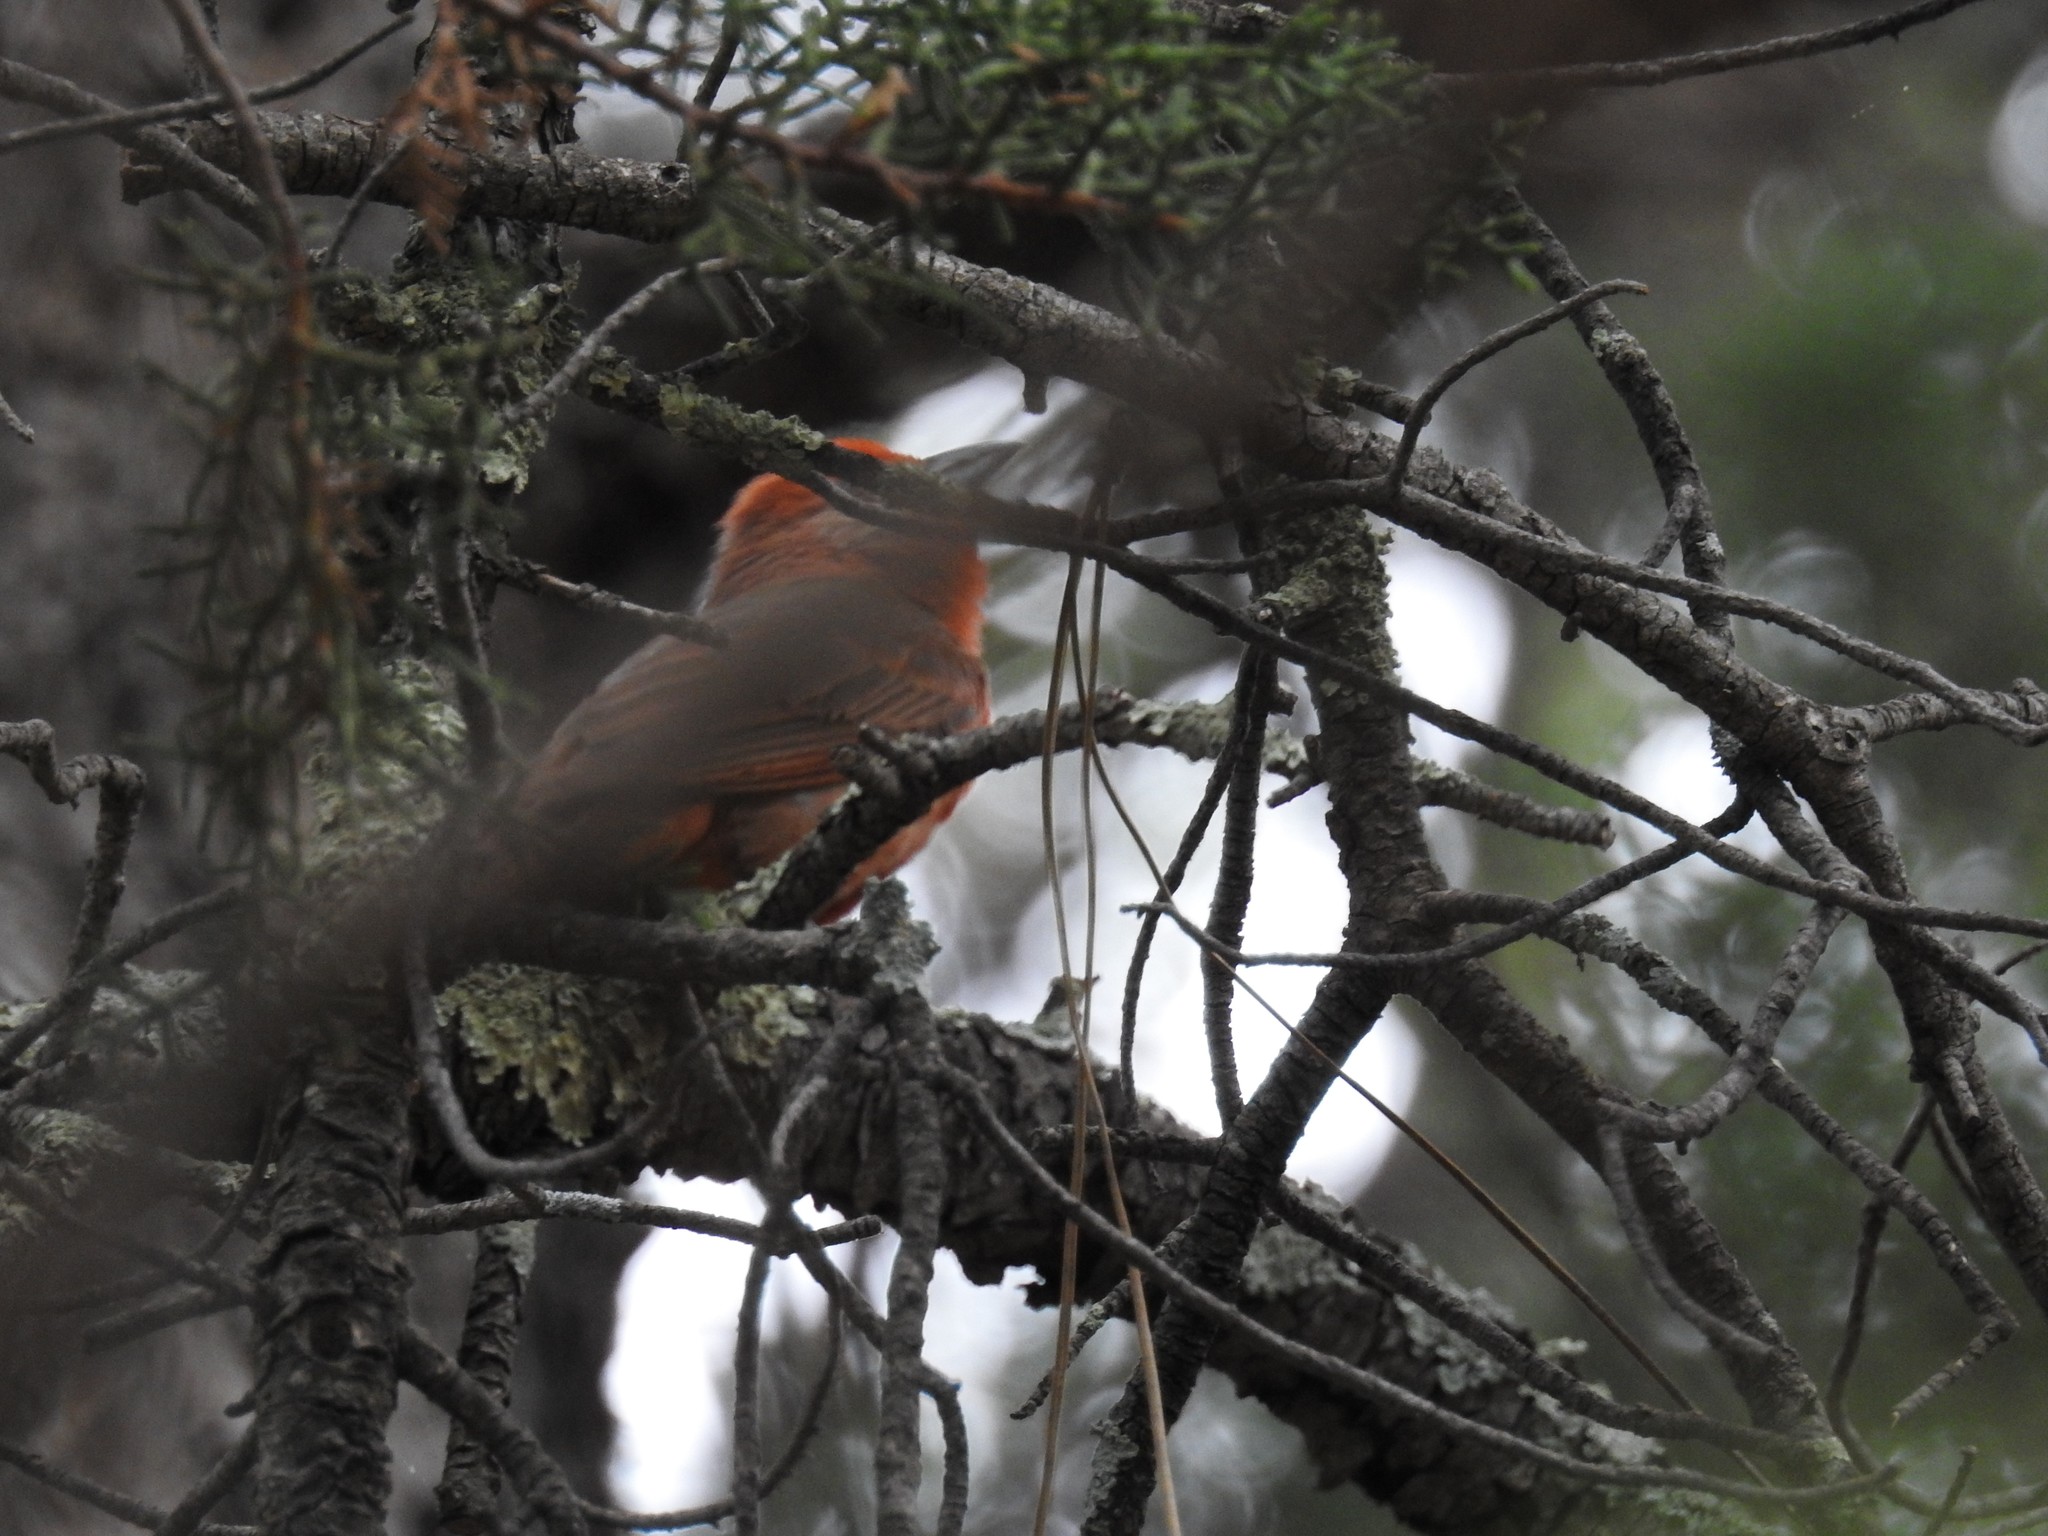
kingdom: Animalia
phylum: Chordata
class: Aves
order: Passeriformes
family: Cardinalidae
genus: Piranga
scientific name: Piranga flava
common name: Red tanager
